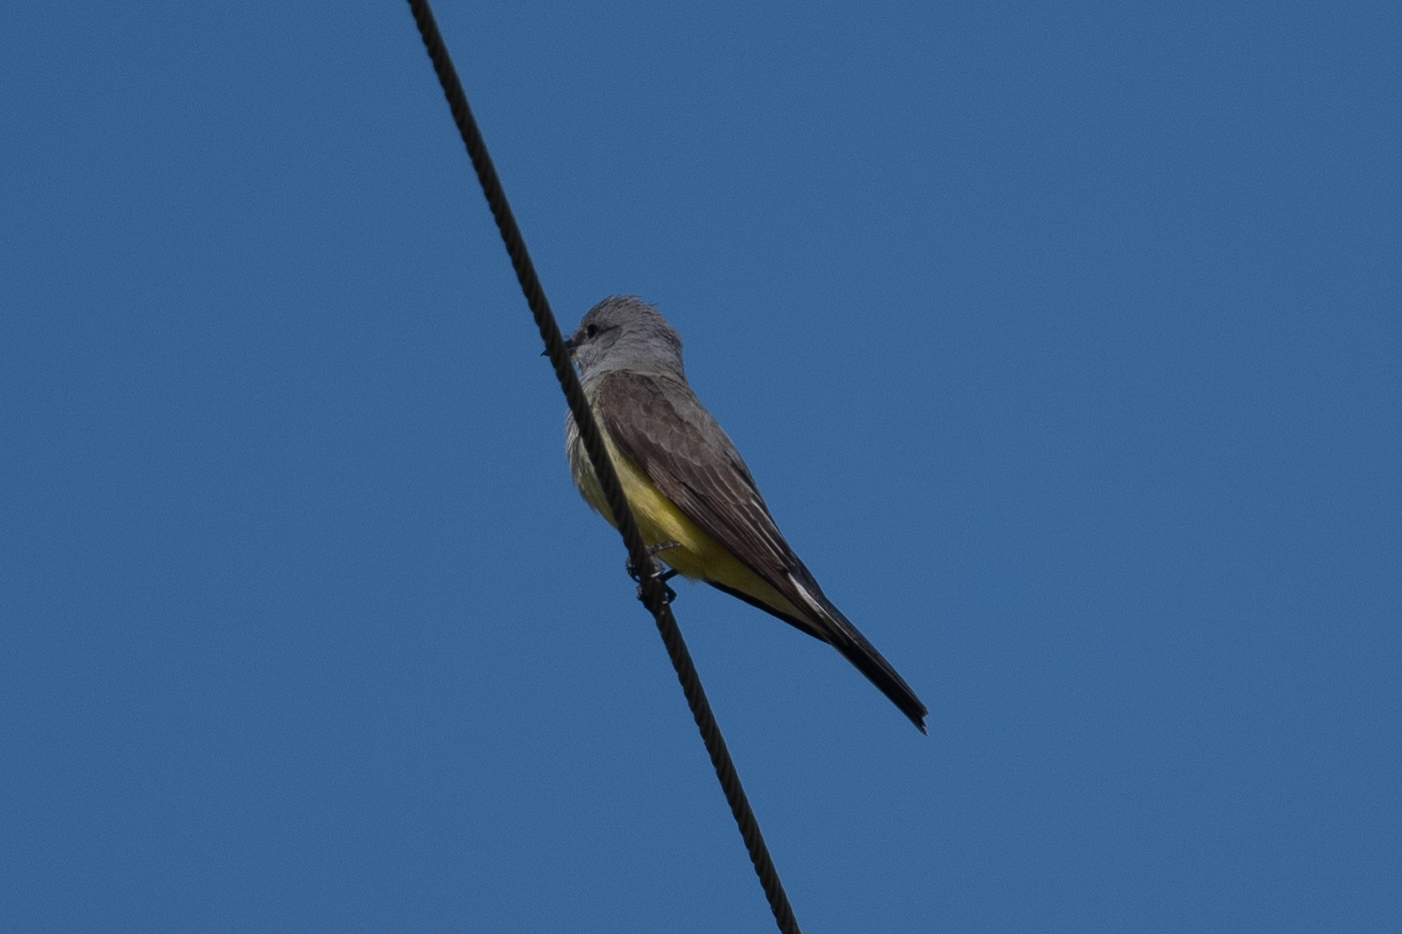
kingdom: Animalia
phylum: Chordata
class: Aves
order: Passeriformes
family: Tyrannidae
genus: Tyrannus
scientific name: Tyrannus verticalis
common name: Western kingbird
